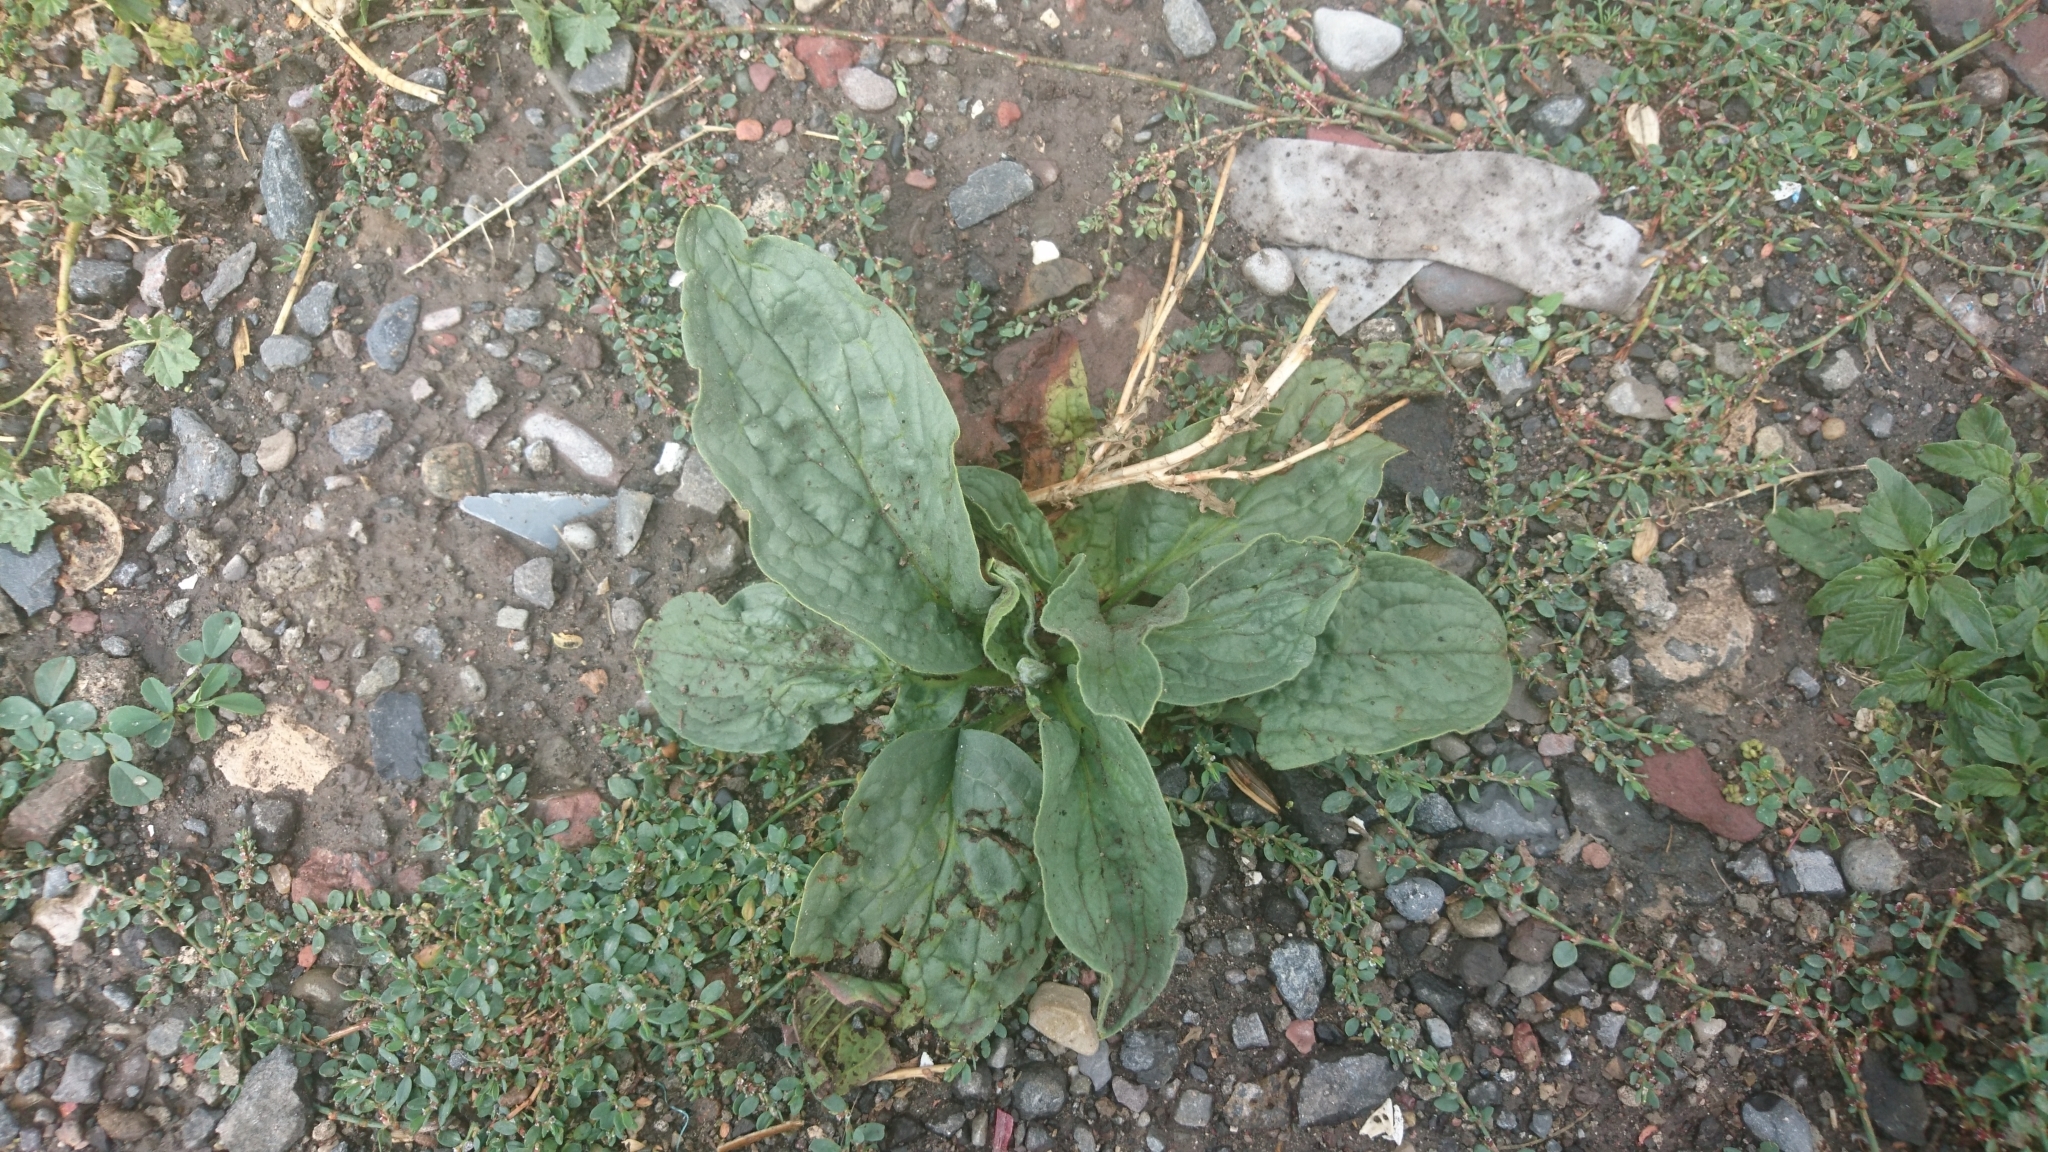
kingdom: Plantae
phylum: Tracheophyta
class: Magnoliopsida
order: Lamiales
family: Plantaginaceae
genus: Plantago
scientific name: Plantago major
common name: Common plantain
